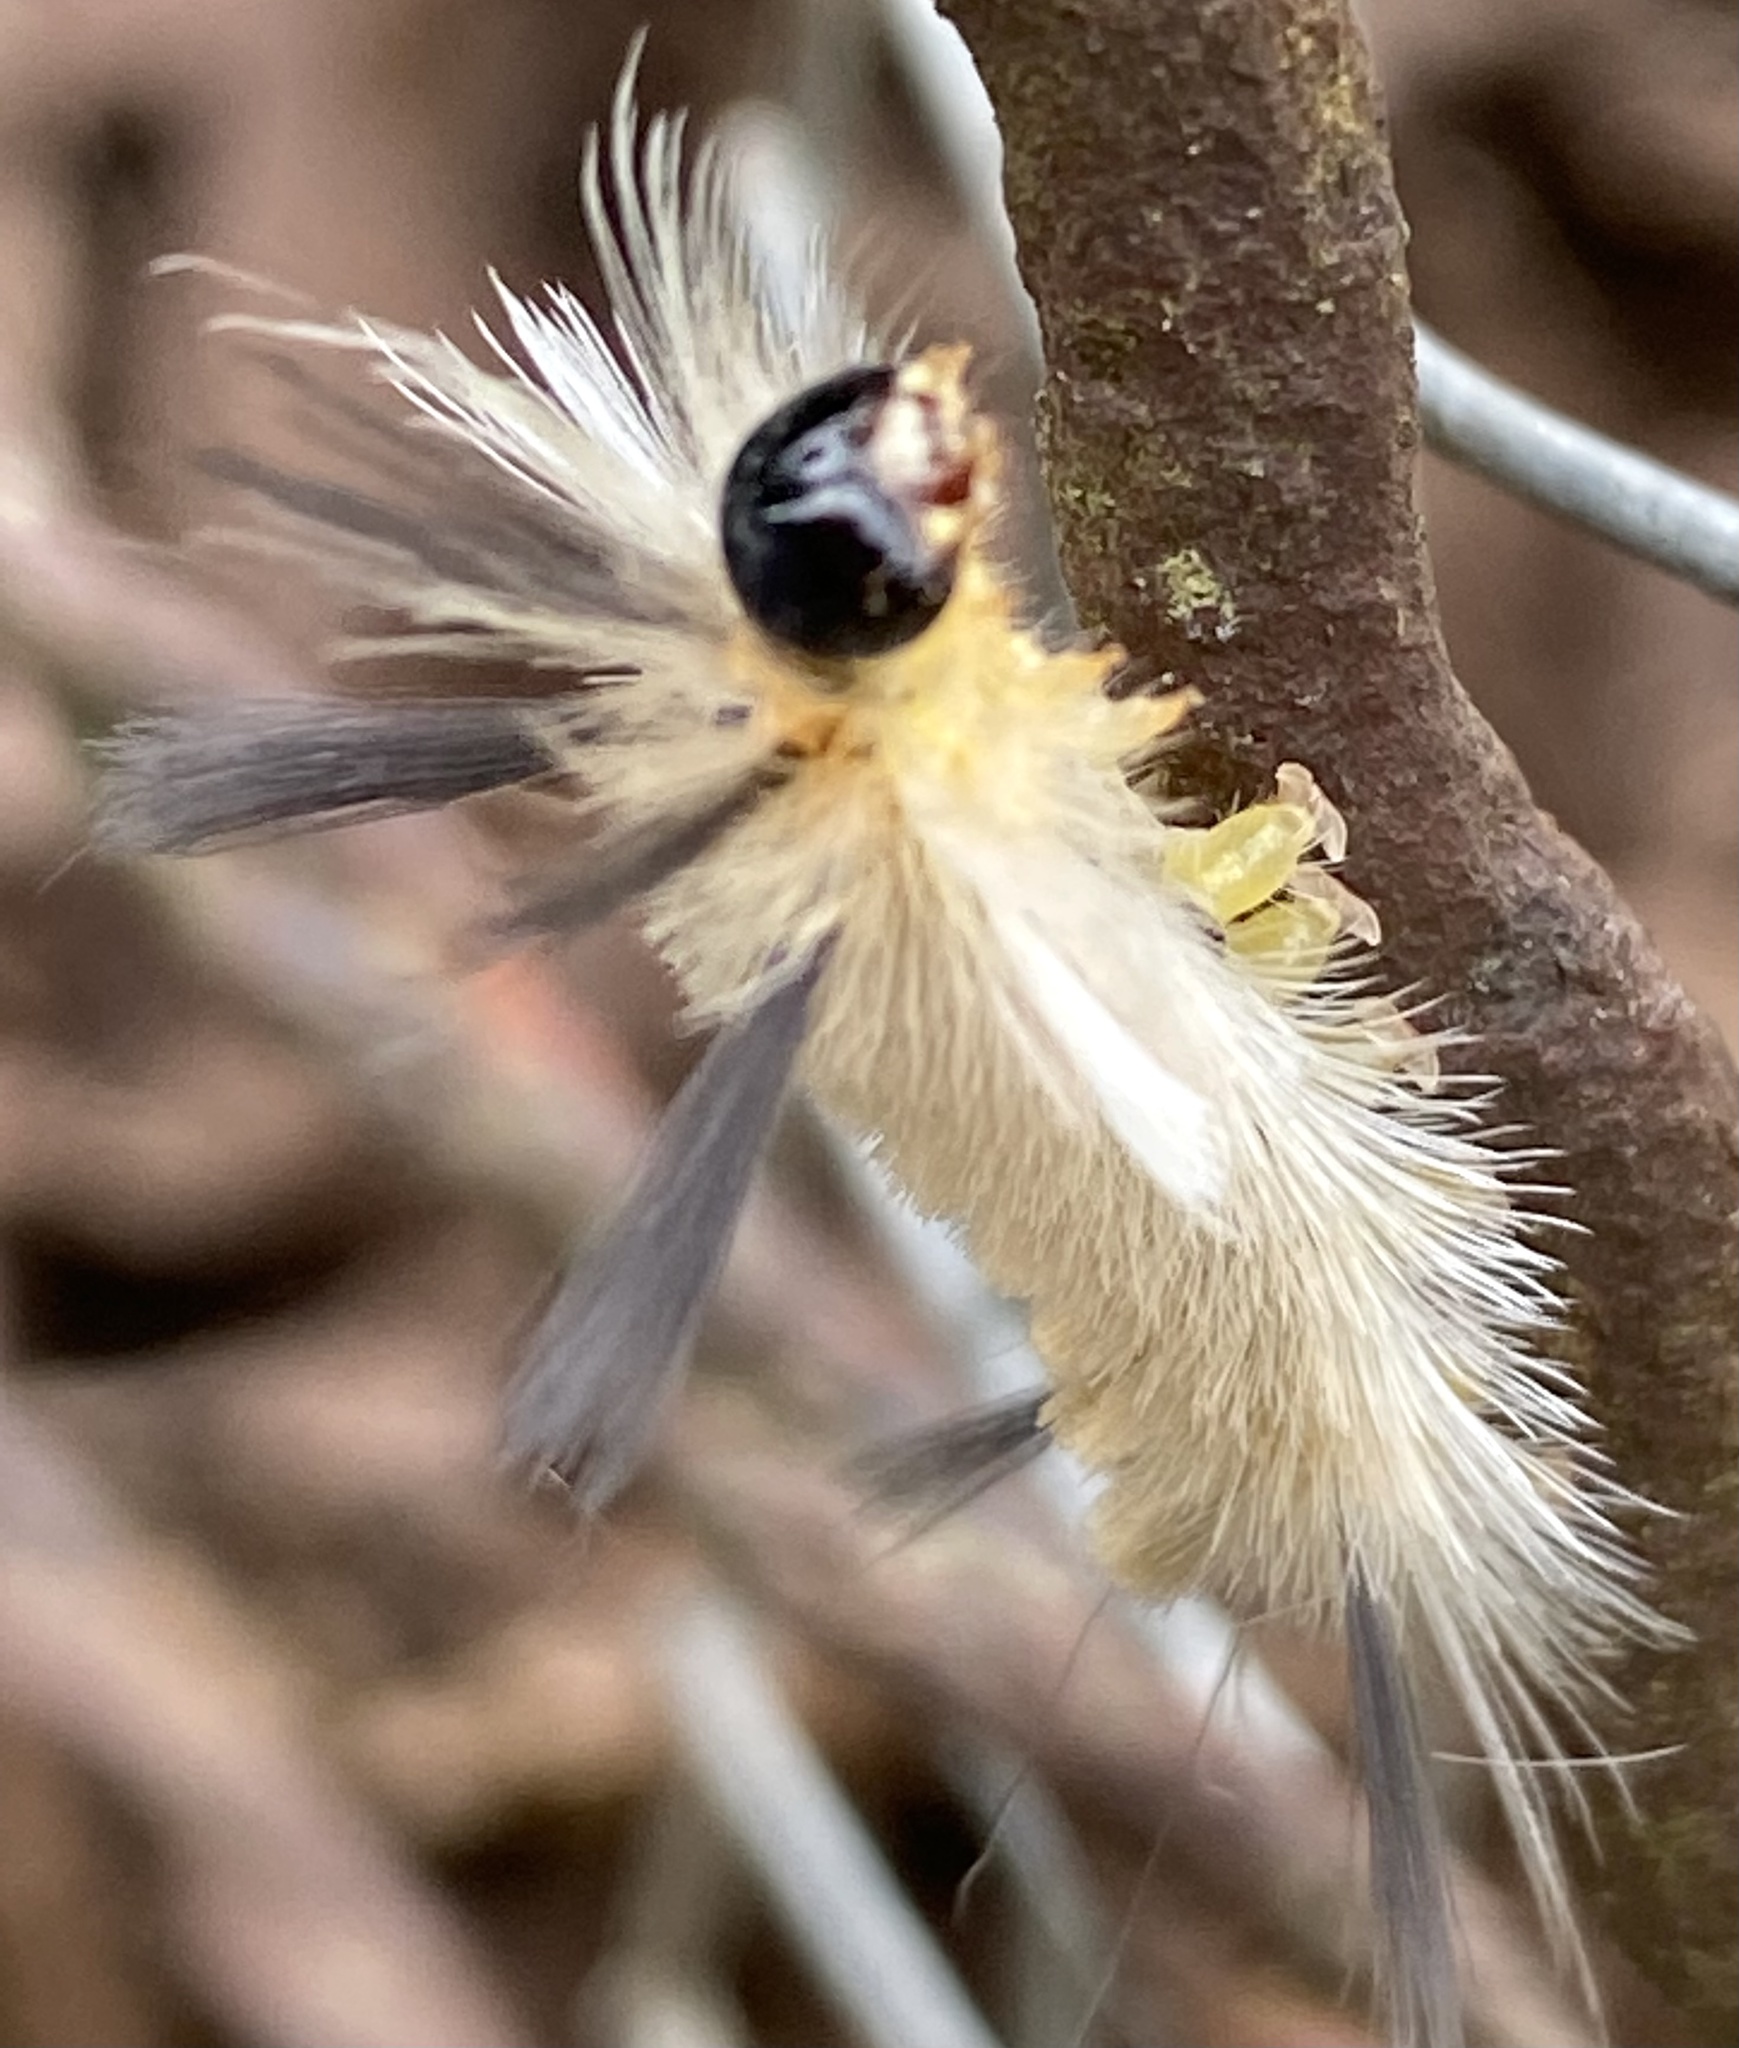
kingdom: Animalia
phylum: Arthropoda
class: Insecta
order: Lepidoptera
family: Erebidae
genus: Halysidota
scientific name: Halysidota tessellaris
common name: Banded tussock moth
